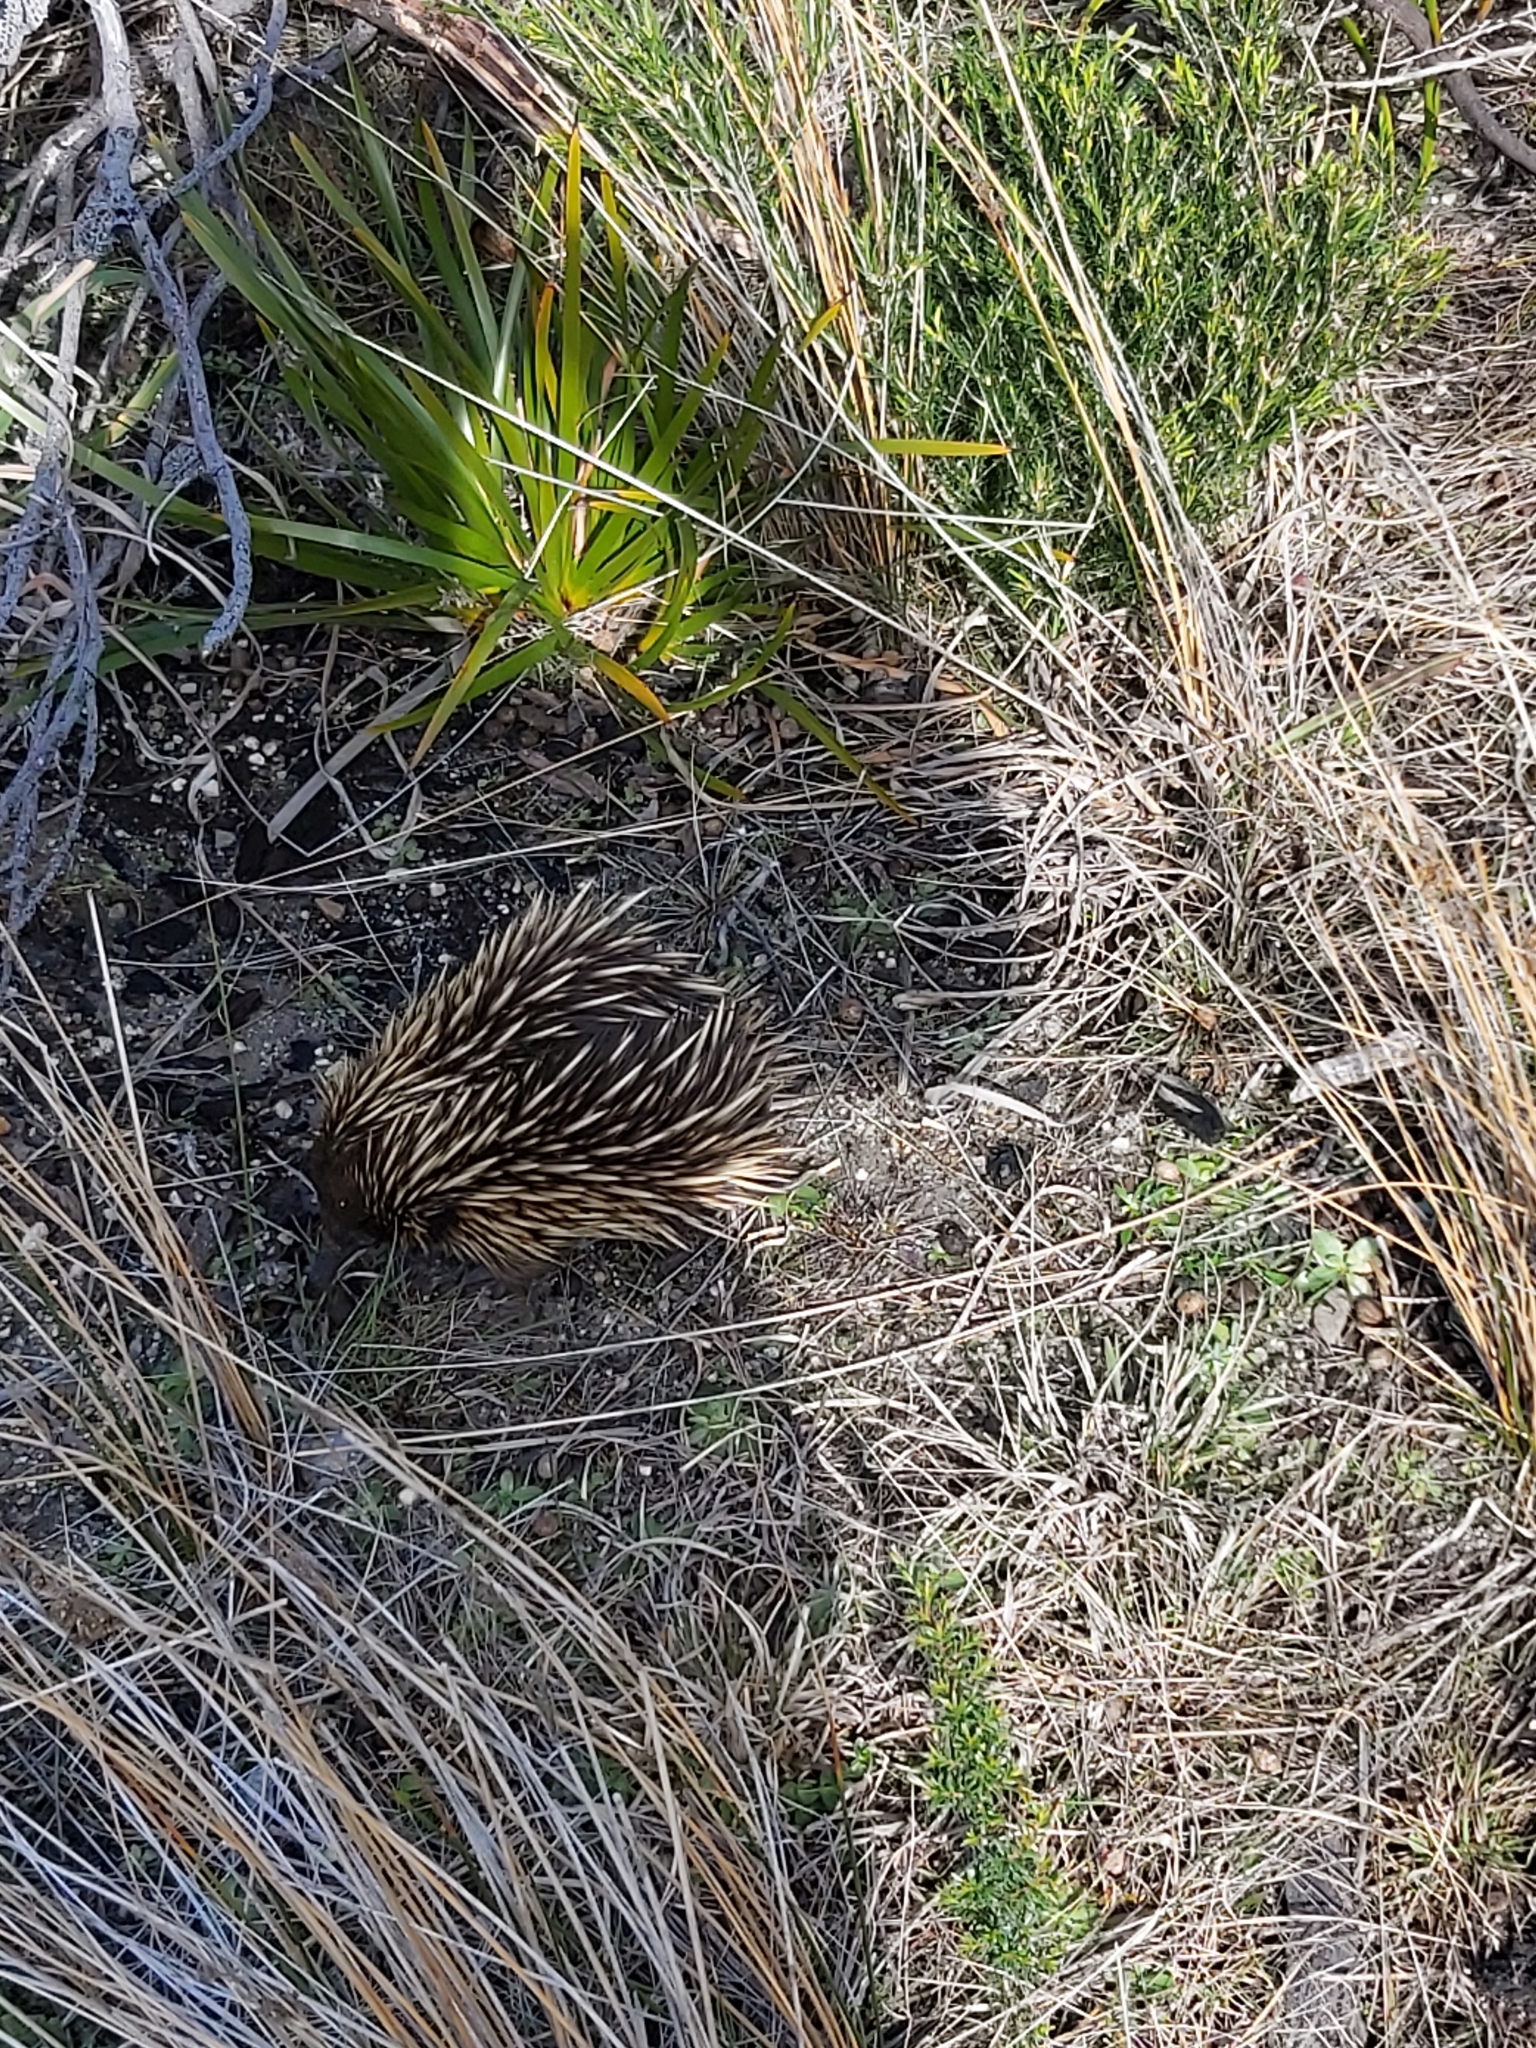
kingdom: Animalia
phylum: Chordata
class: Mammalia
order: Monotremata
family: Tachyglossidae
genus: Tachyglossus
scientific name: Tachyglossus aculeatus
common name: Short-beaked echidna
